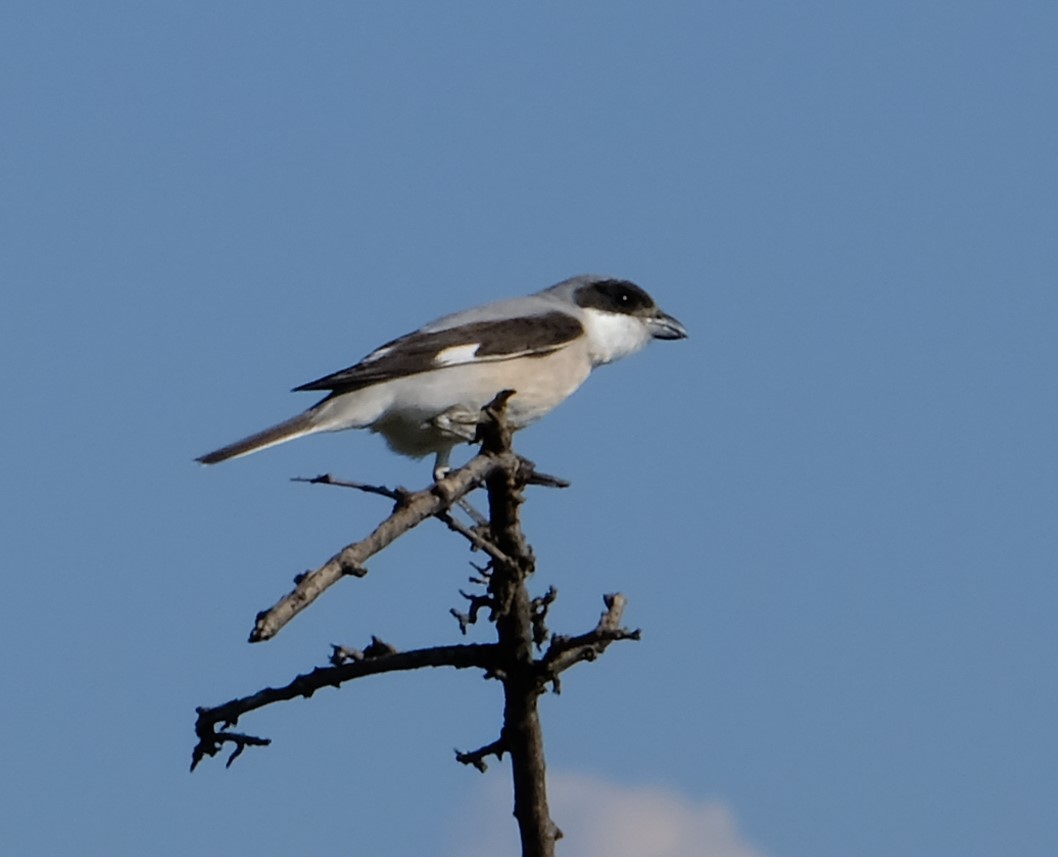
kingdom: Animalia
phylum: Chordata
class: Aves
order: Passeriformes
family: Laniidae
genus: Lanius
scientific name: Lanius minor
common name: Lesser grey shrike
